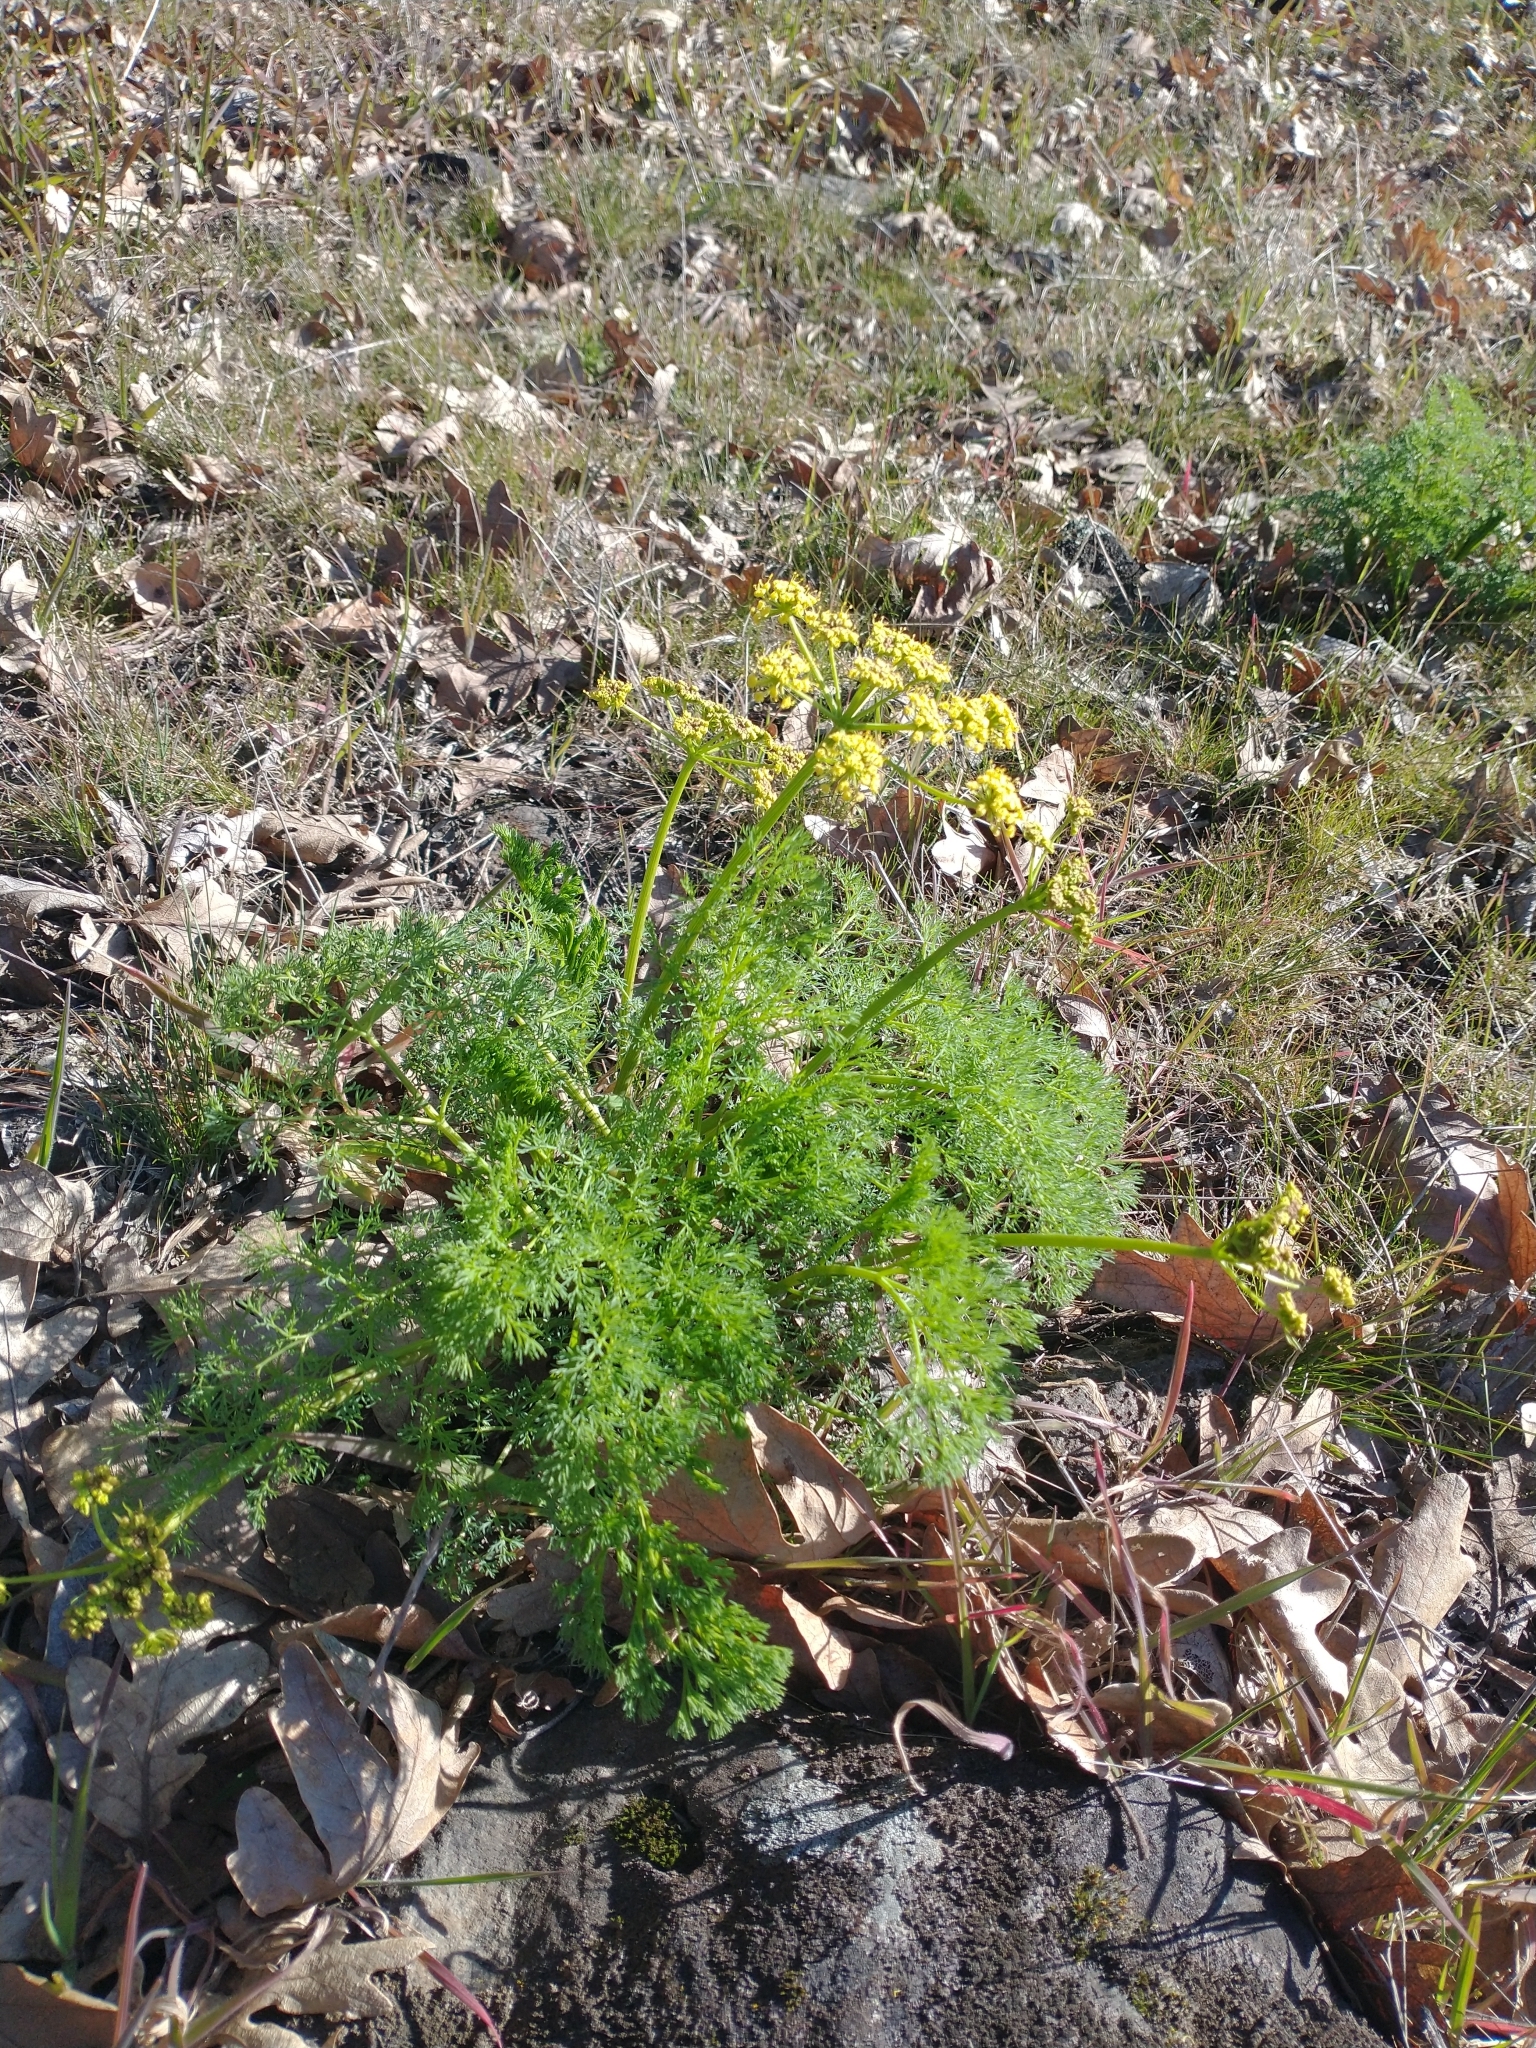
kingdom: Plantae
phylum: Tracheophyta
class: Magnoliopsida
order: Apiales
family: Apiaceae
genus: Lomatium
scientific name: Lomatium klickitatense
